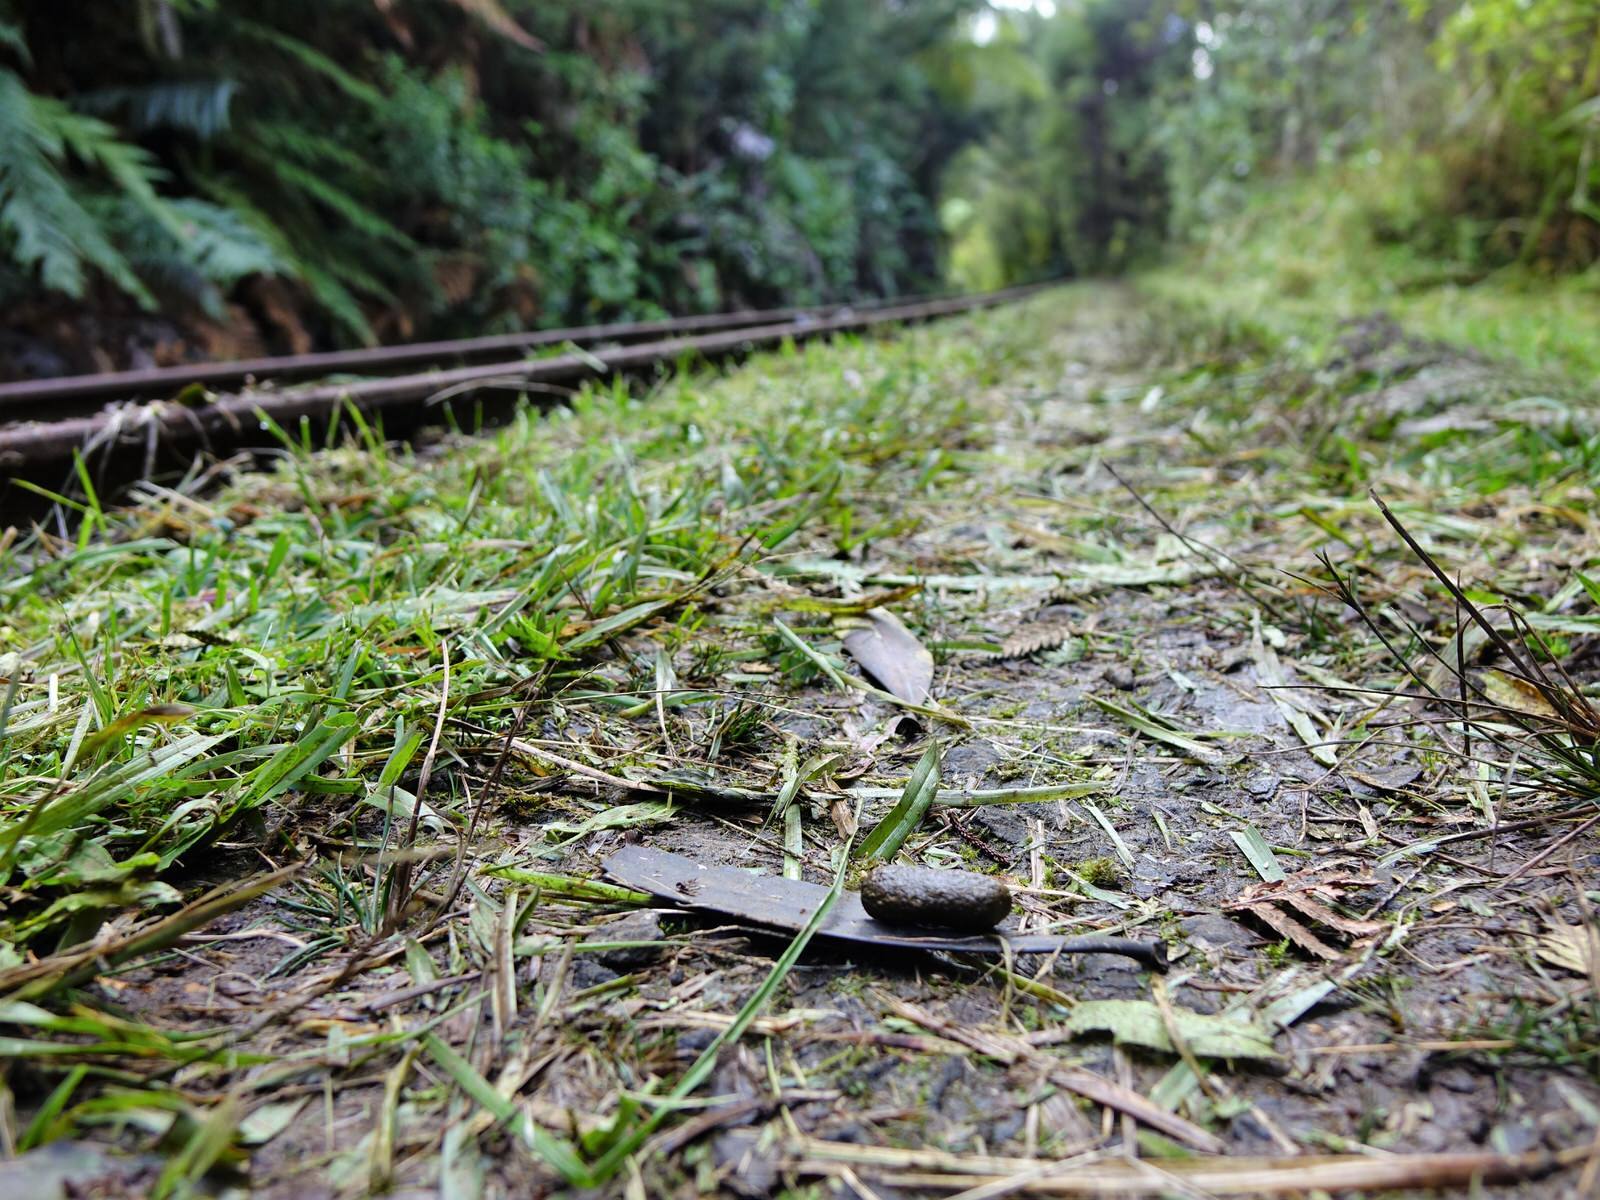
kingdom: Animalia
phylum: Chordata
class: Mammalia
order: Diprotodontia
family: Phalangeridae
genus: Trichosurus
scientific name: Trichosurus vulpecula
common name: Common brushtail
